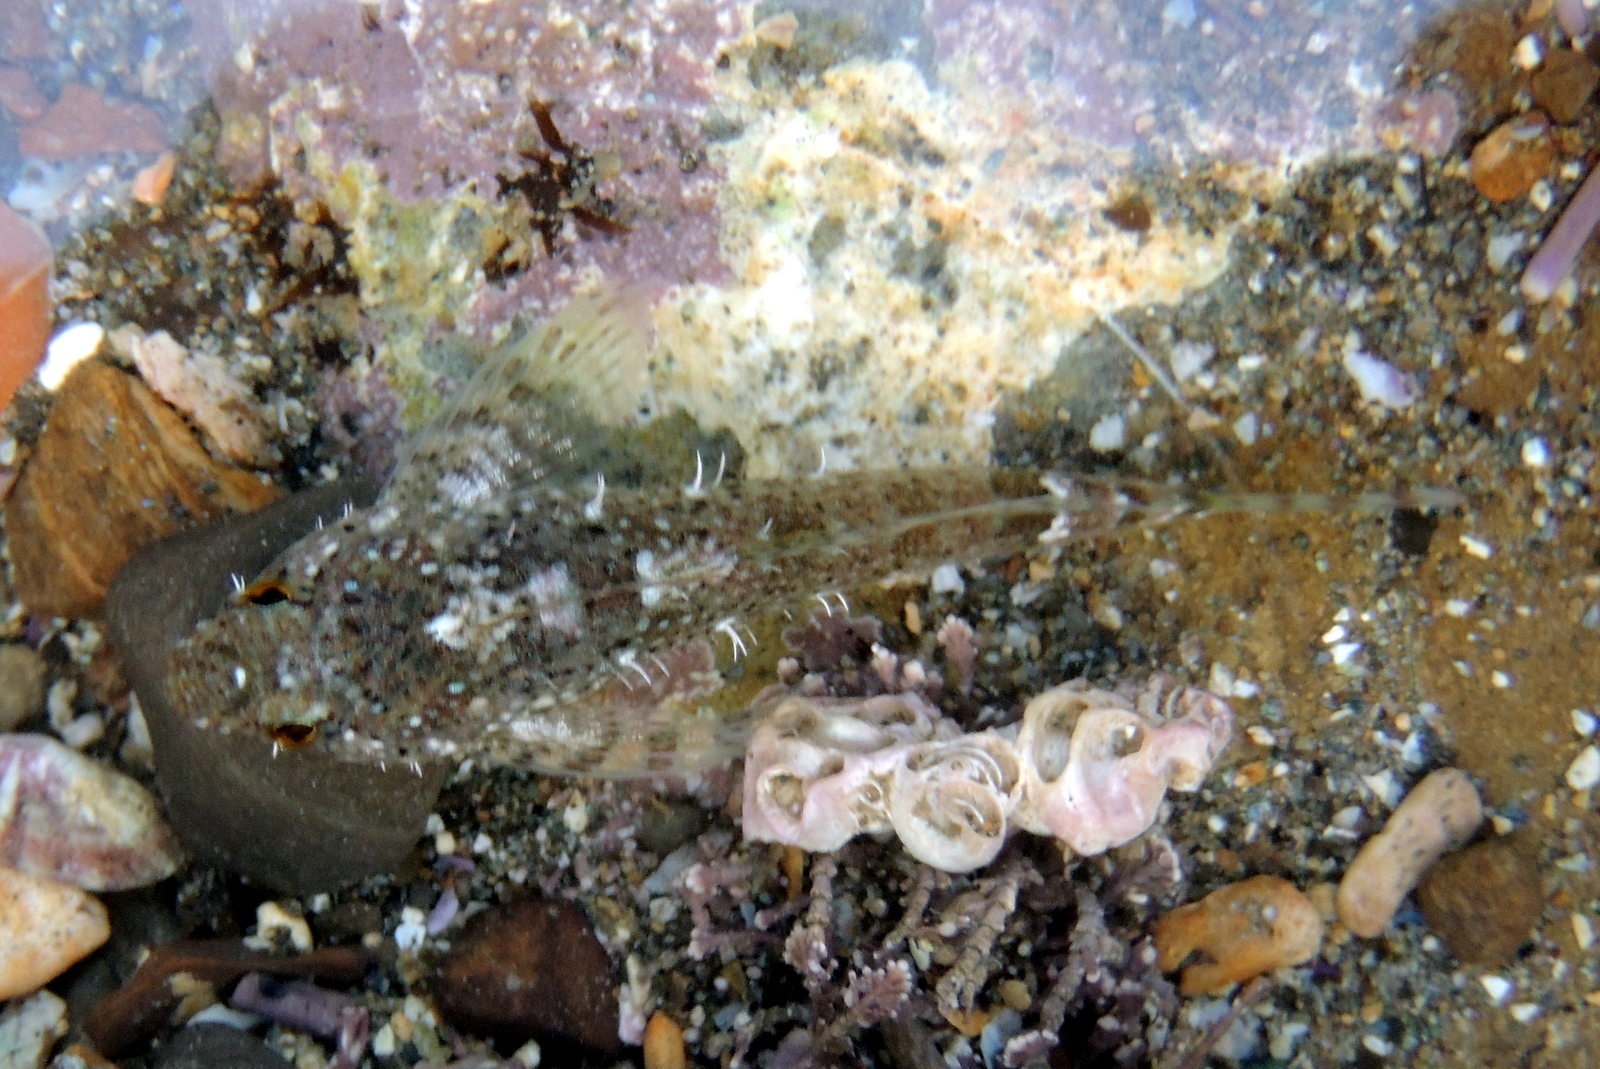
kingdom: Animalia
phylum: Chordata
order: Scorpaeniformes
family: Cottidae
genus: Clinocottus
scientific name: Clinocottus analis
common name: Woolly sculpin
